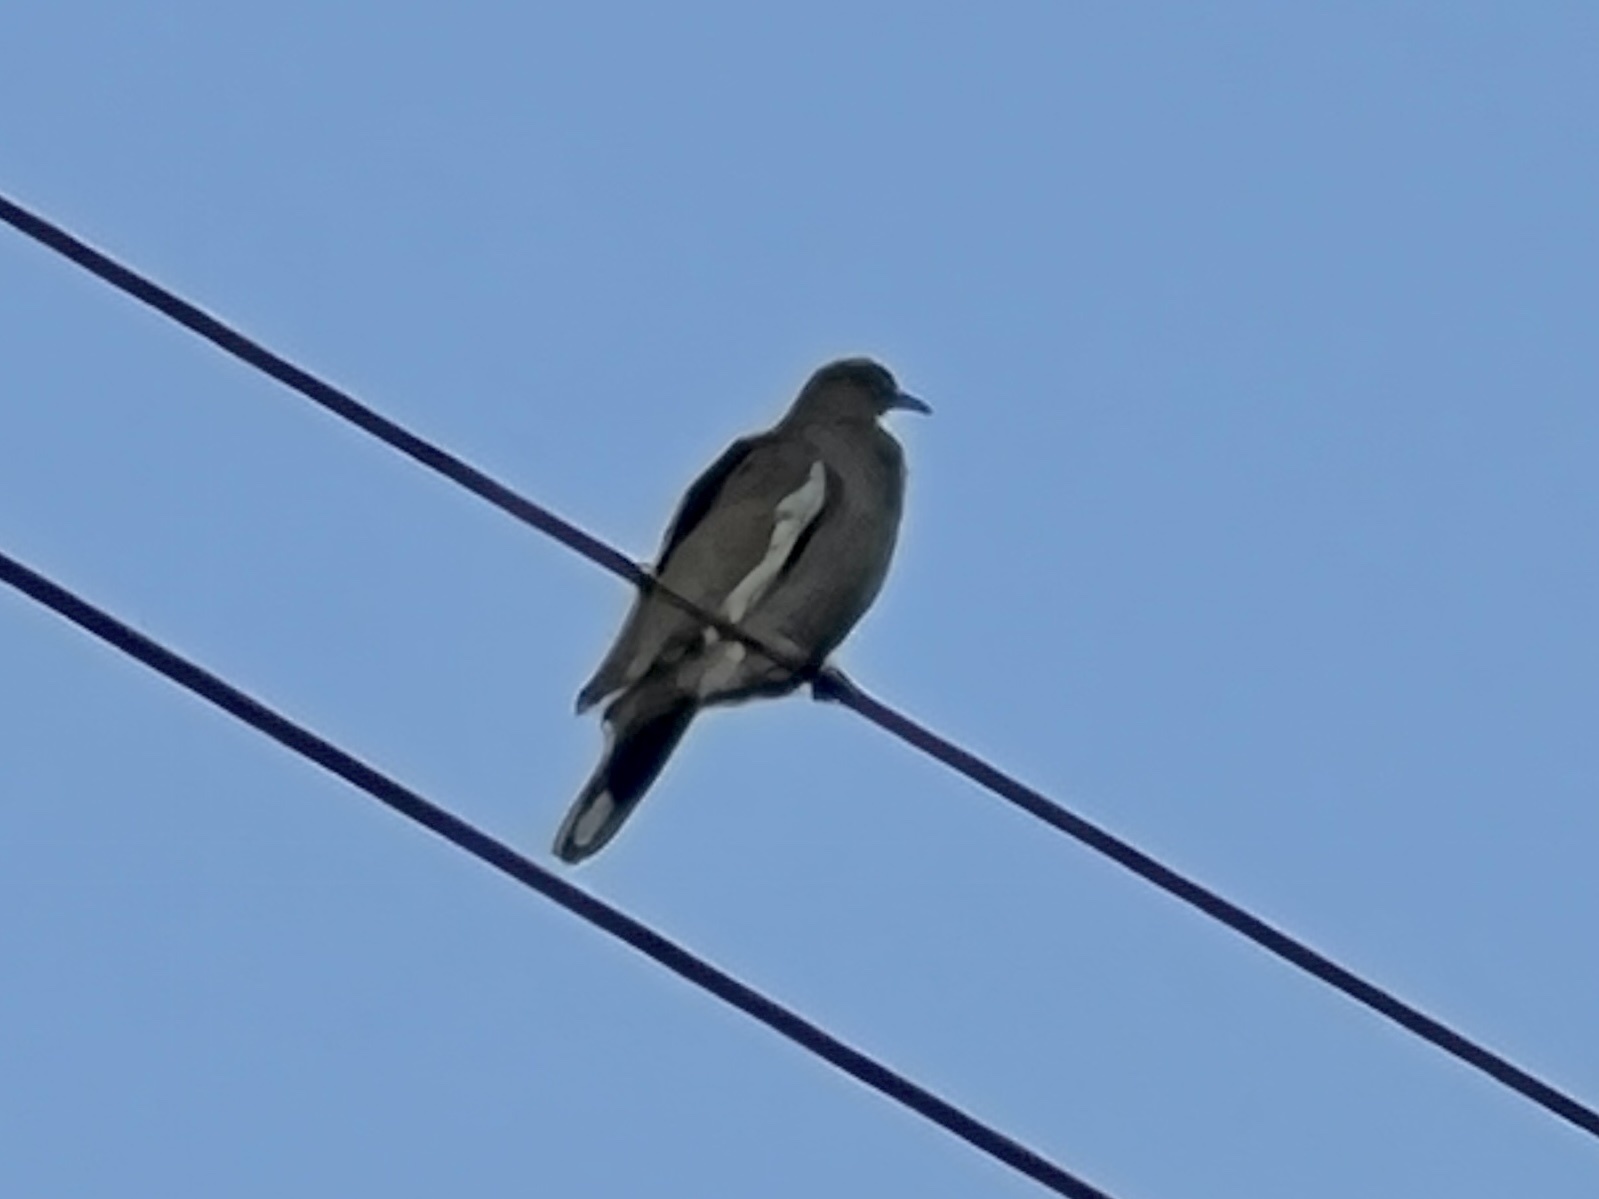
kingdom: Animalia
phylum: Chordata
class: Aves
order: Columbiformes
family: Columbidae
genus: Zenaida
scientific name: Zenaida asiatica
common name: White-winged dove
